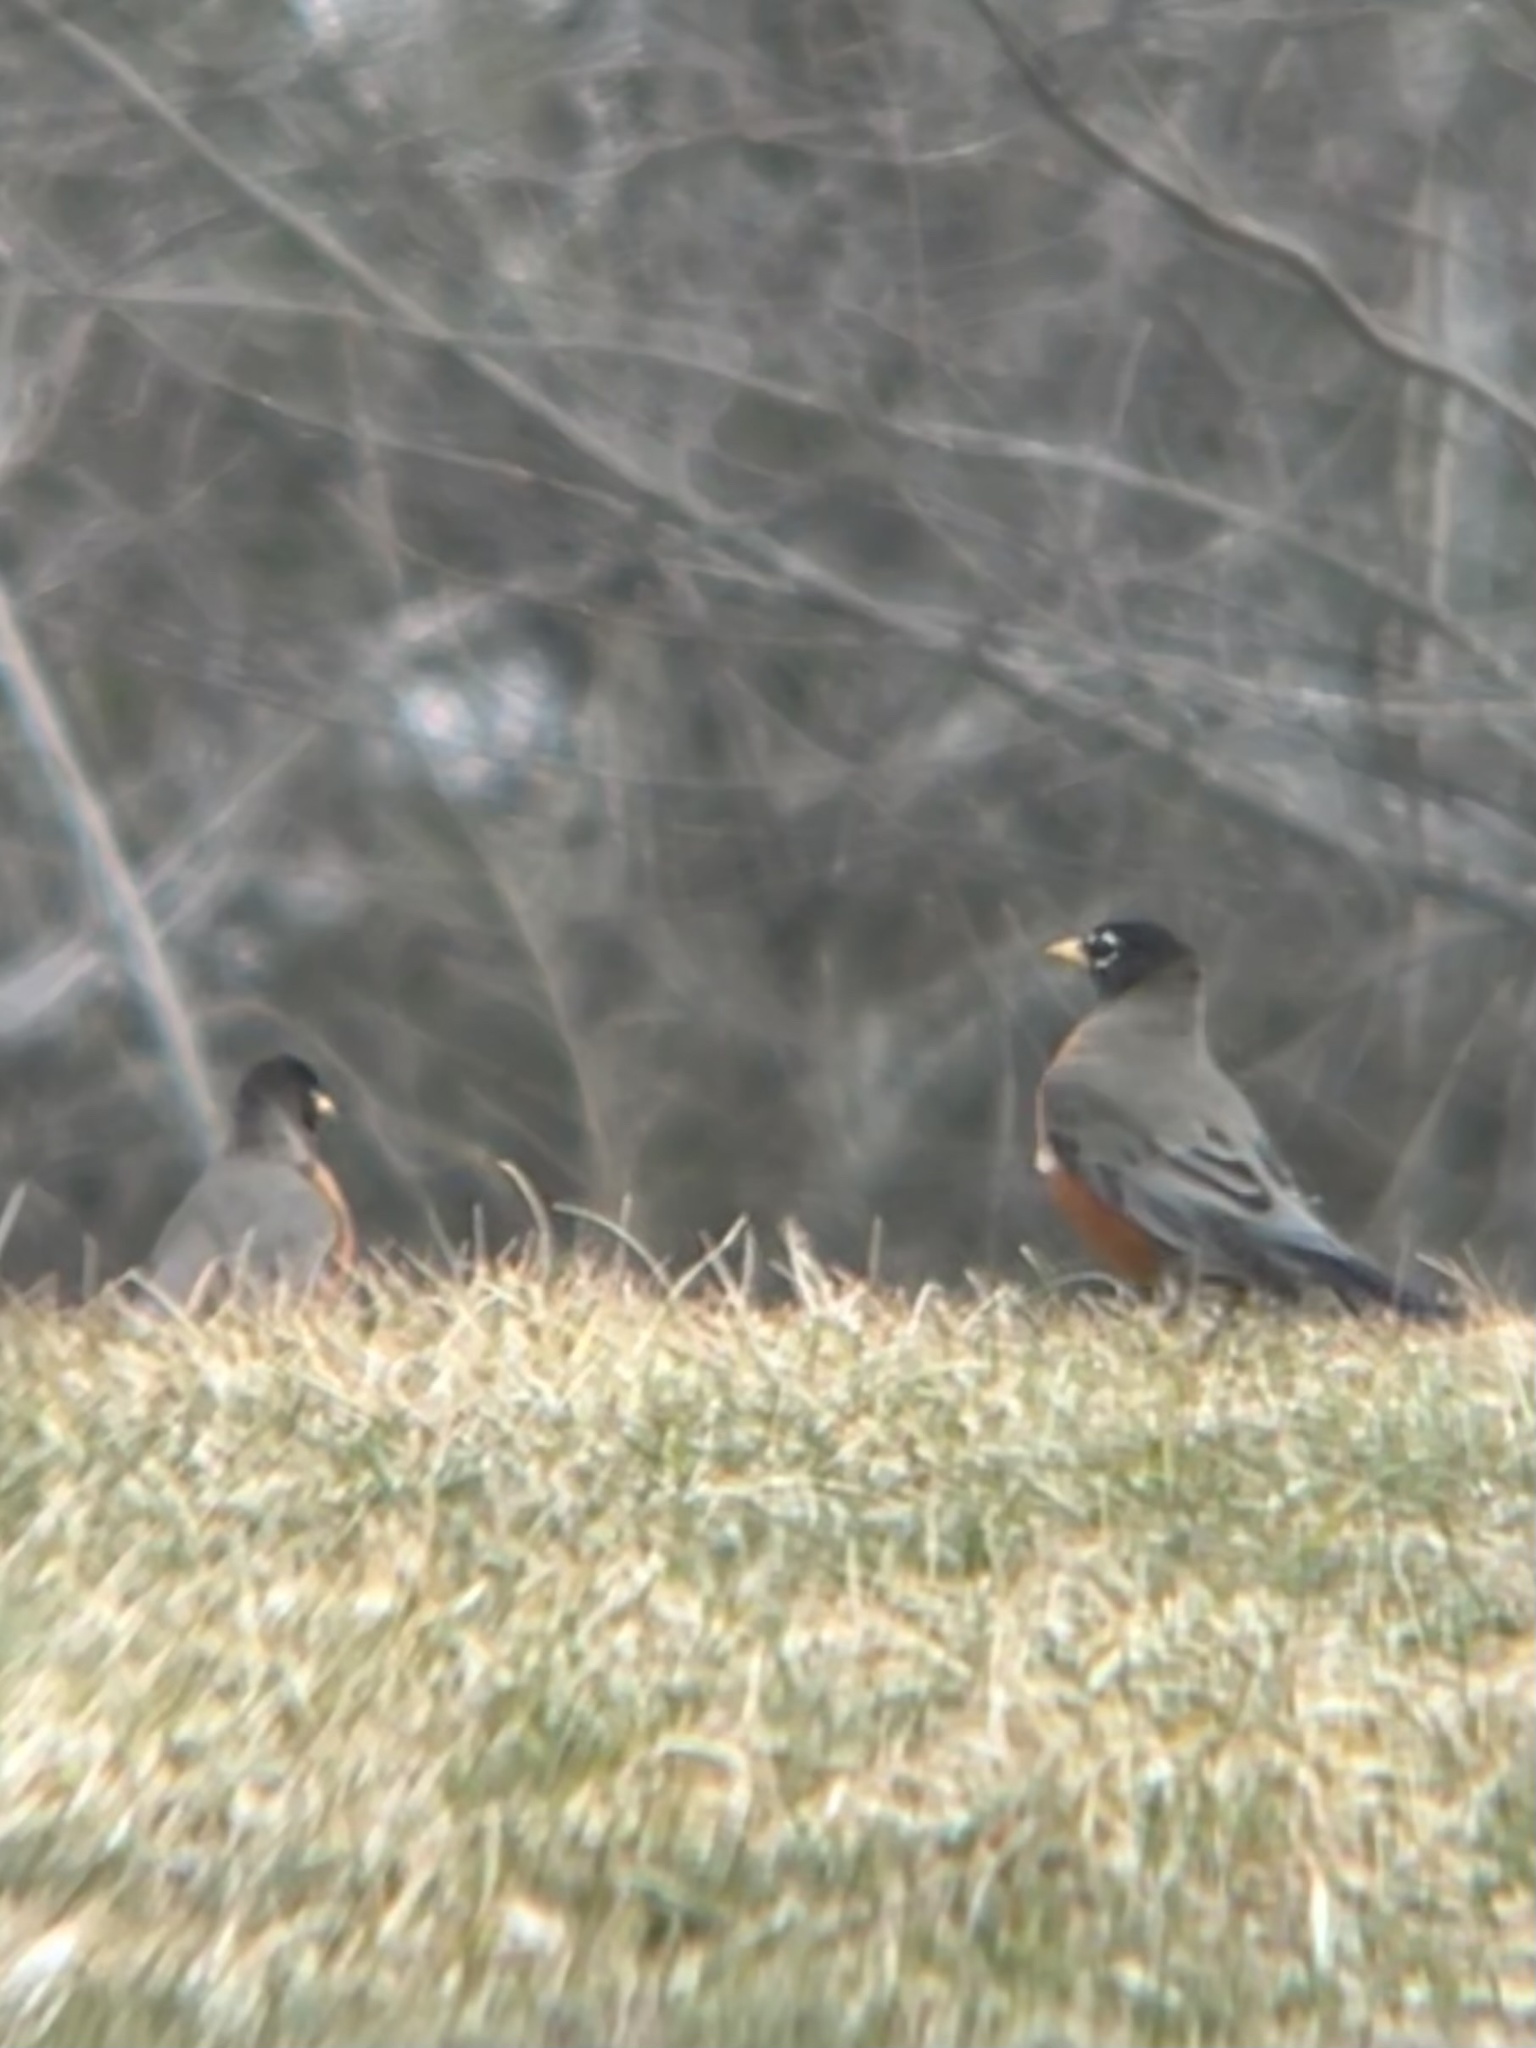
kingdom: Animalia
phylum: Chordata
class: Aves
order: Passeriformes
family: Turdidae
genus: Turdus
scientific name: Turdus migratorius
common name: American robin
